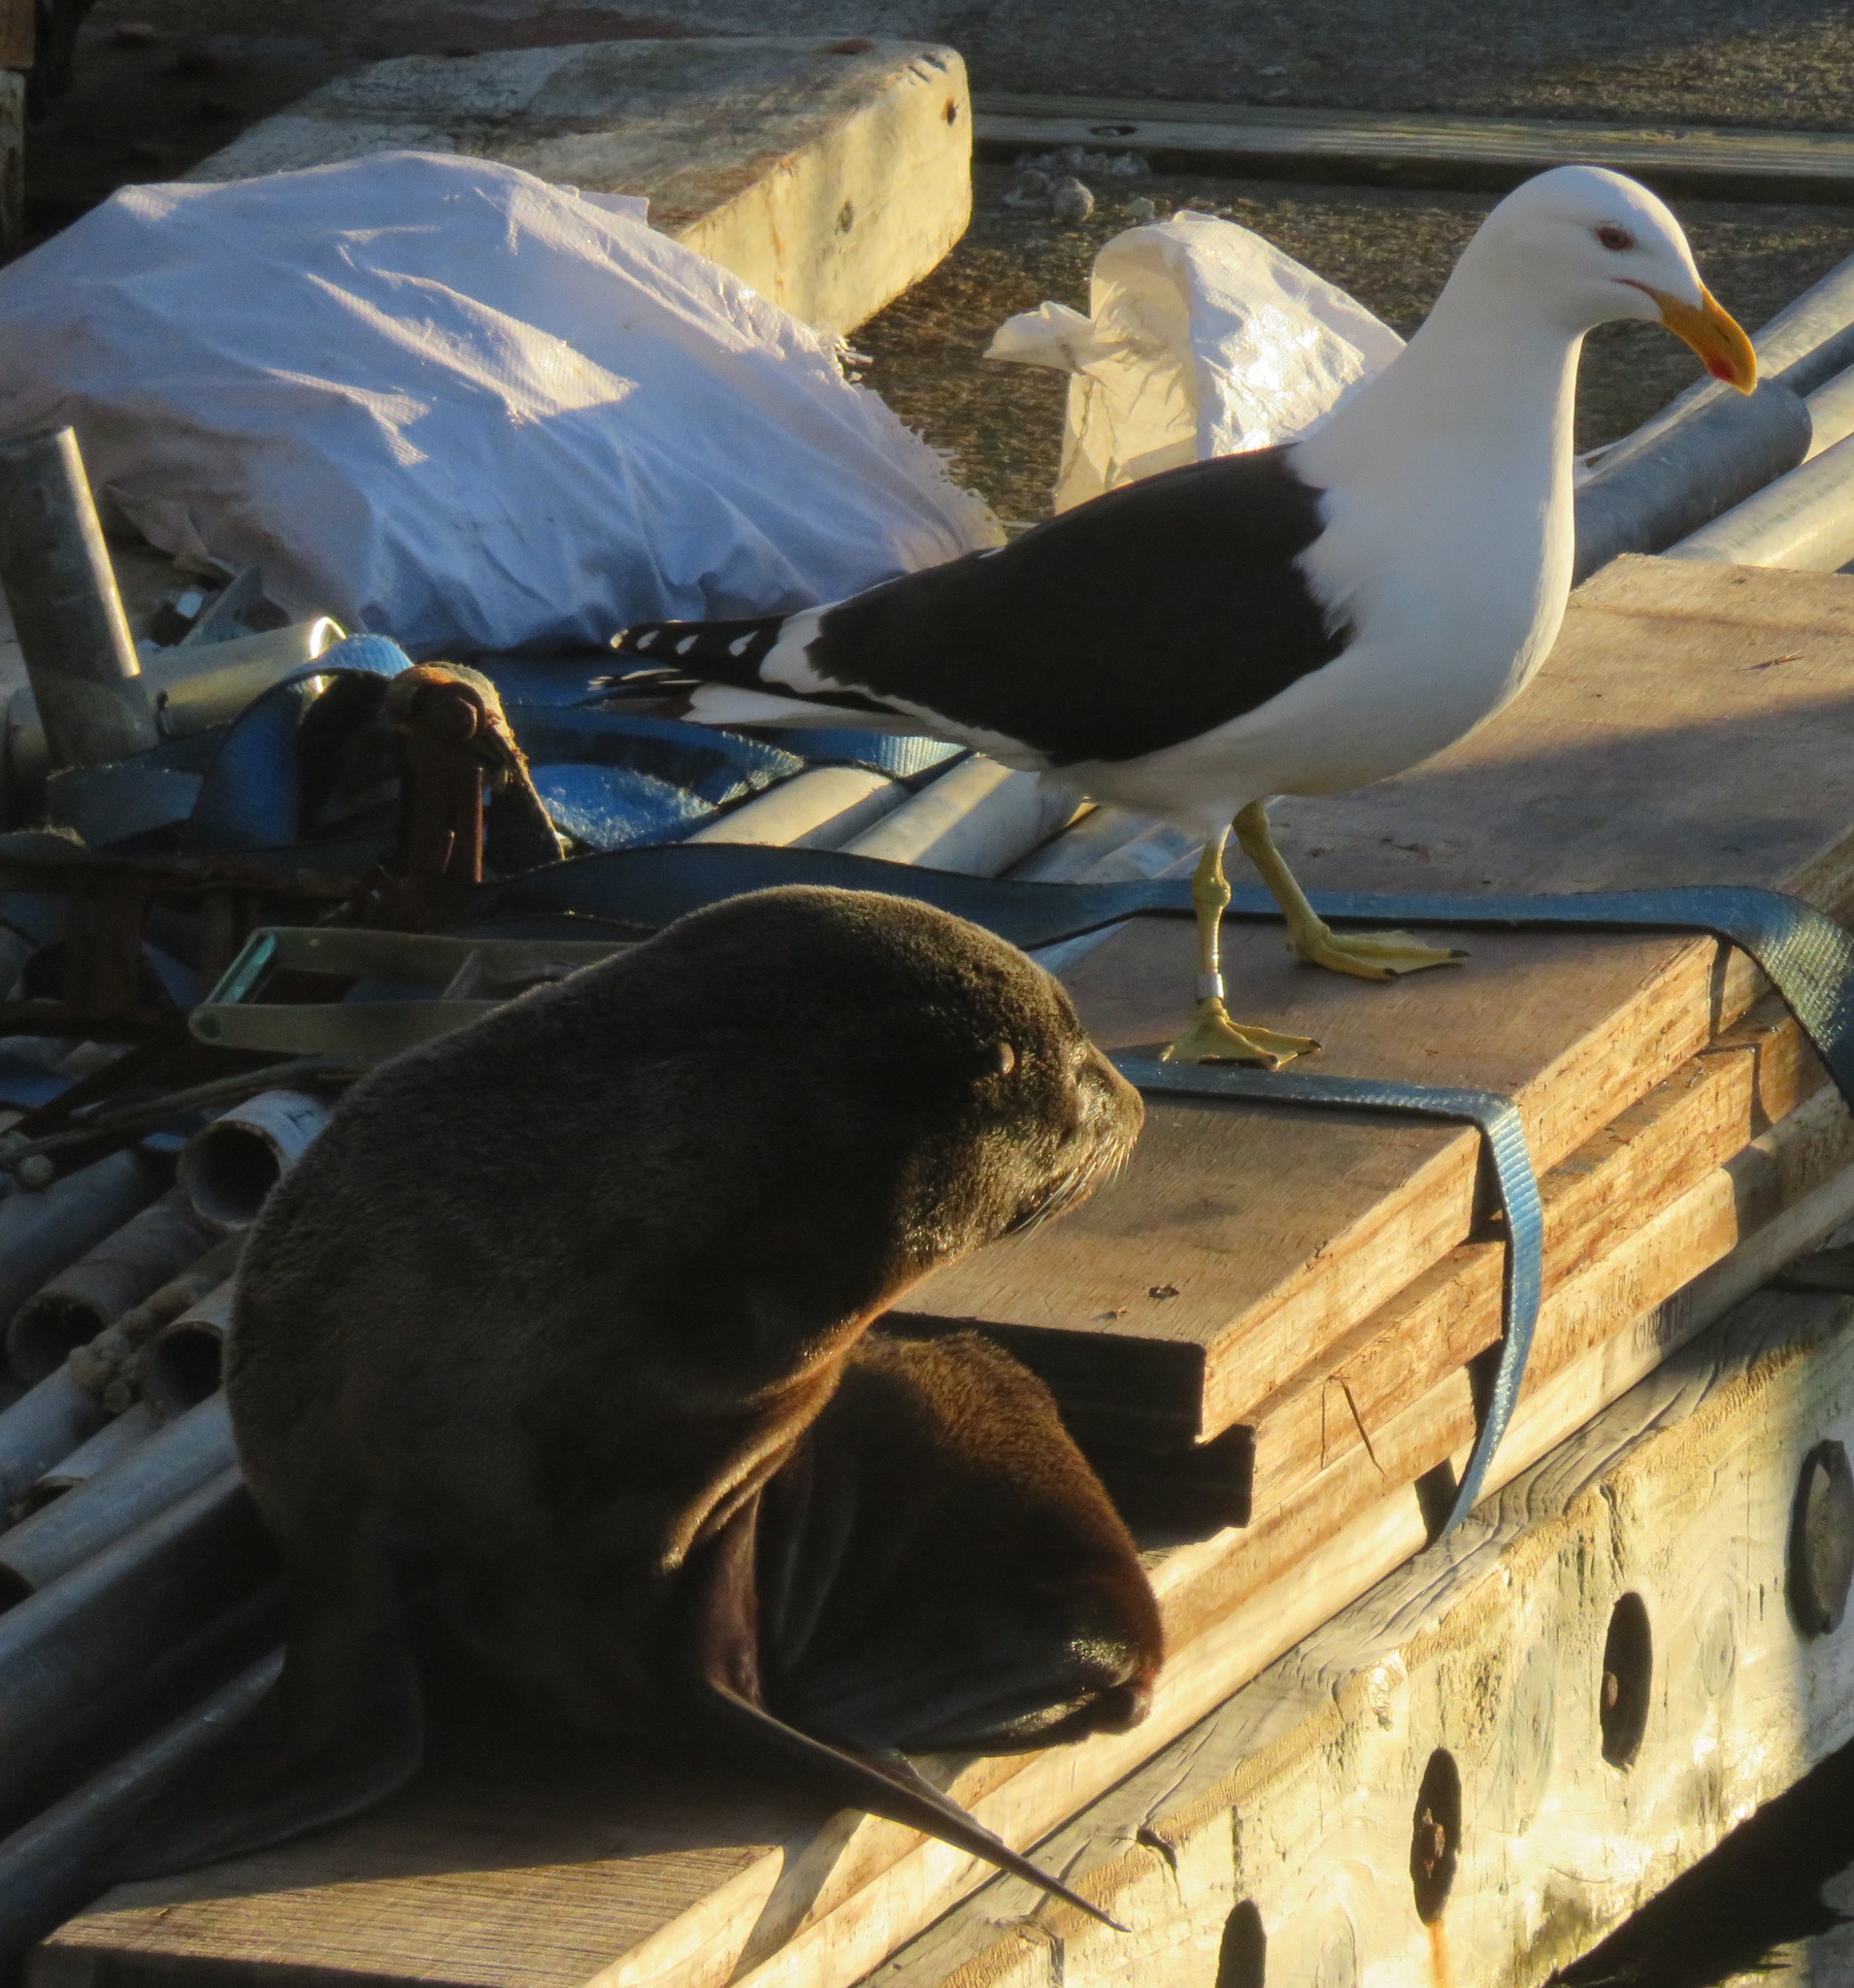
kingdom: Animalia
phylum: Chordata
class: Mammalia
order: Carnivora
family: Otariidae
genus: Arctocephalus
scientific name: Arctocephalus forsteri
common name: New zealand fur seal
